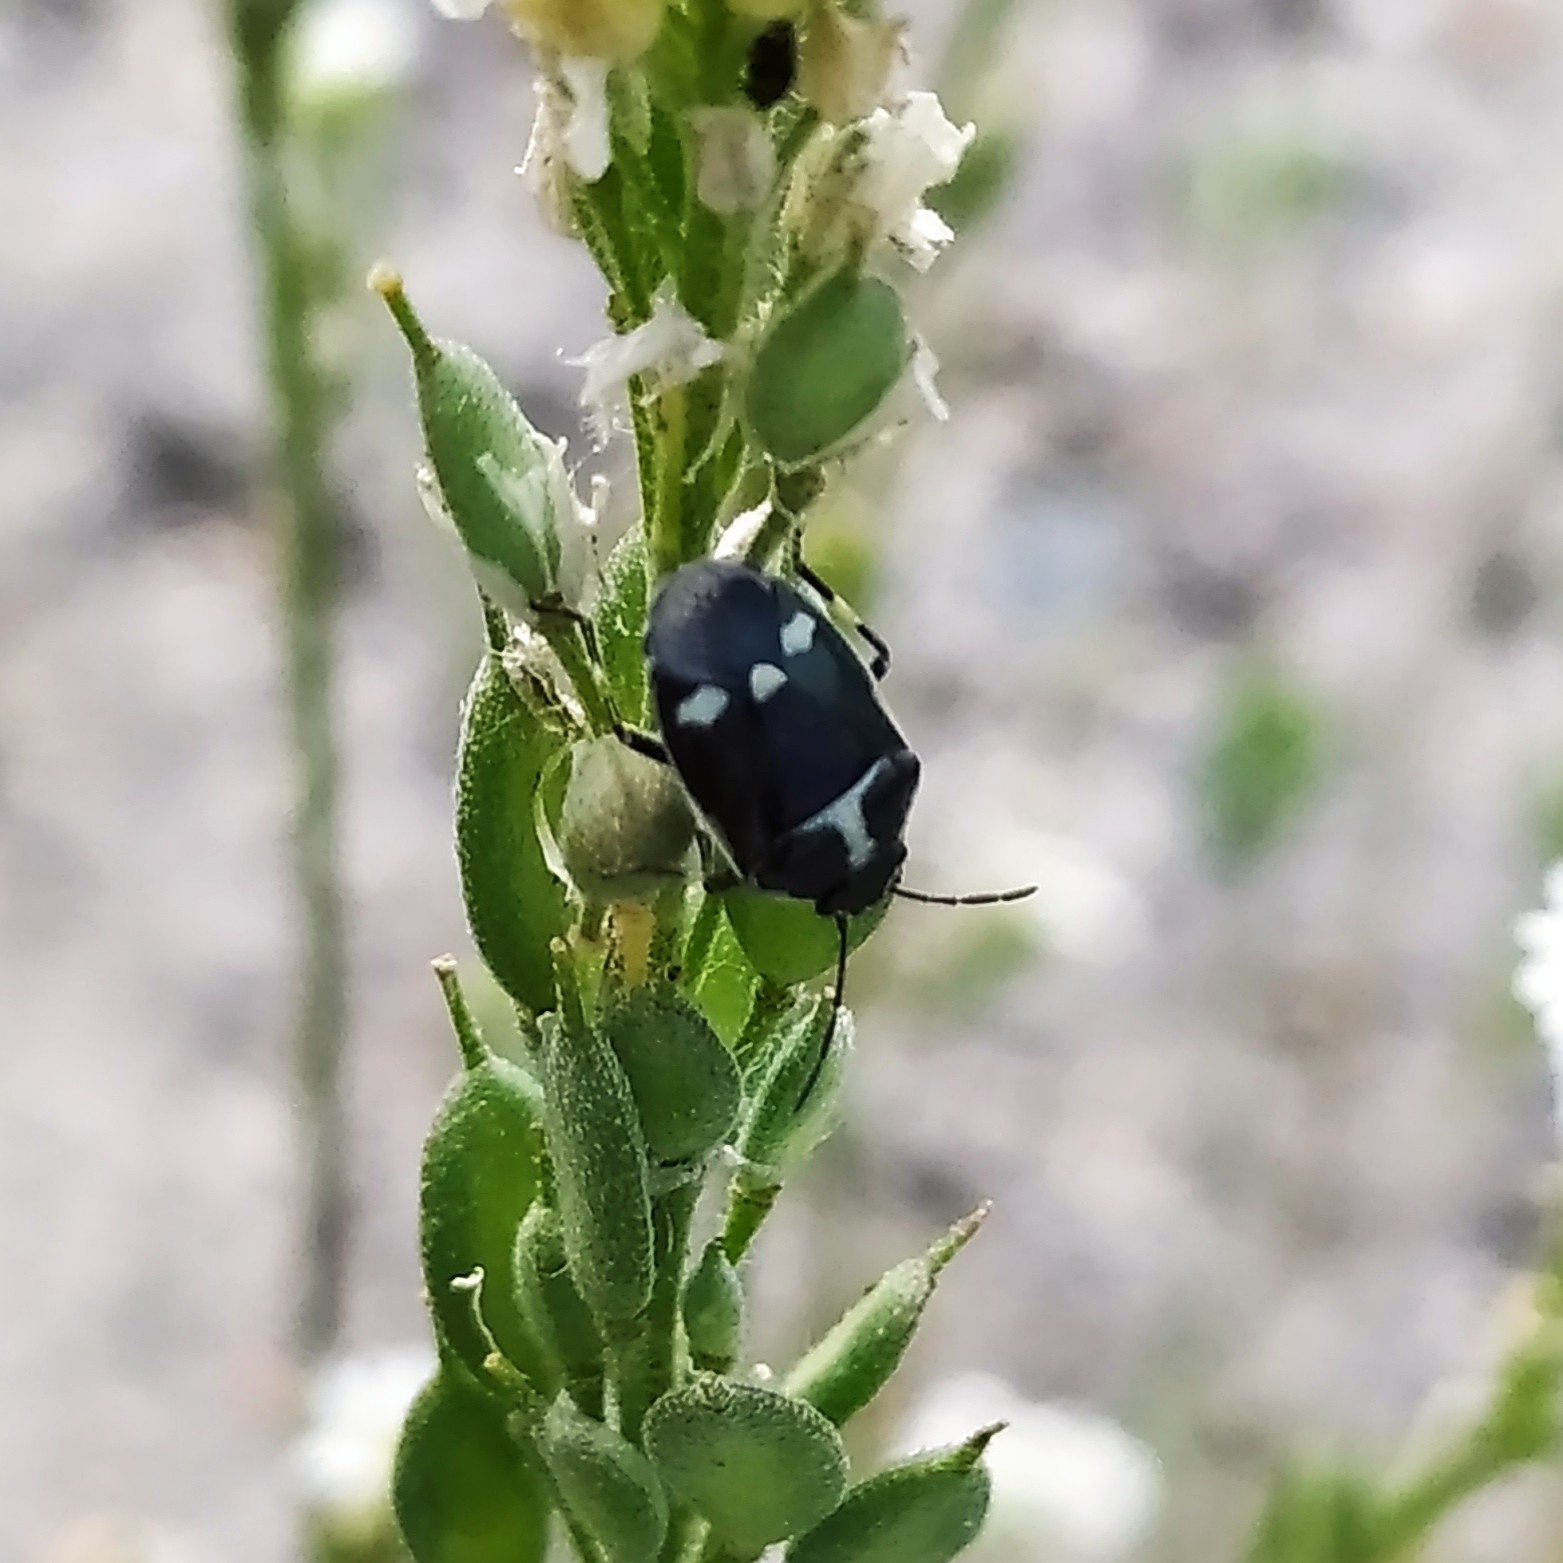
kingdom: Animalia
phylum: Arthropoda
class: Insecta
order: Hemiptera
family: Pentatomidae
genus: Eurydema
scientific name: Eurydema oleracea
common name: Cabbage bug
